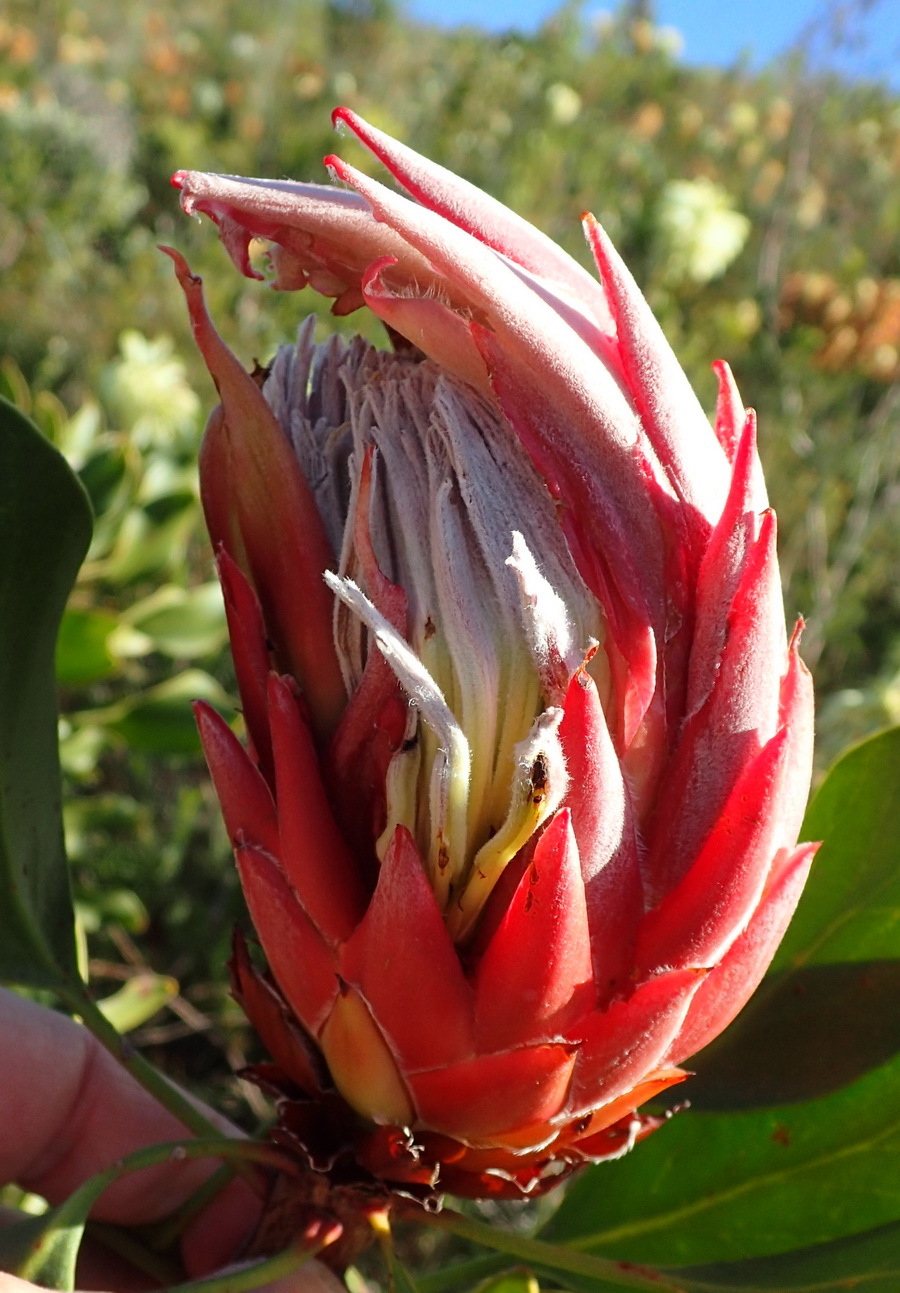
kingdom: Plantae
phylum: Tracheophyta
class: Magnoliopsida
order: Proteales
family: Proteaceae
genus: Protea
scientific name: Protea cynaroides
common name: King protea
